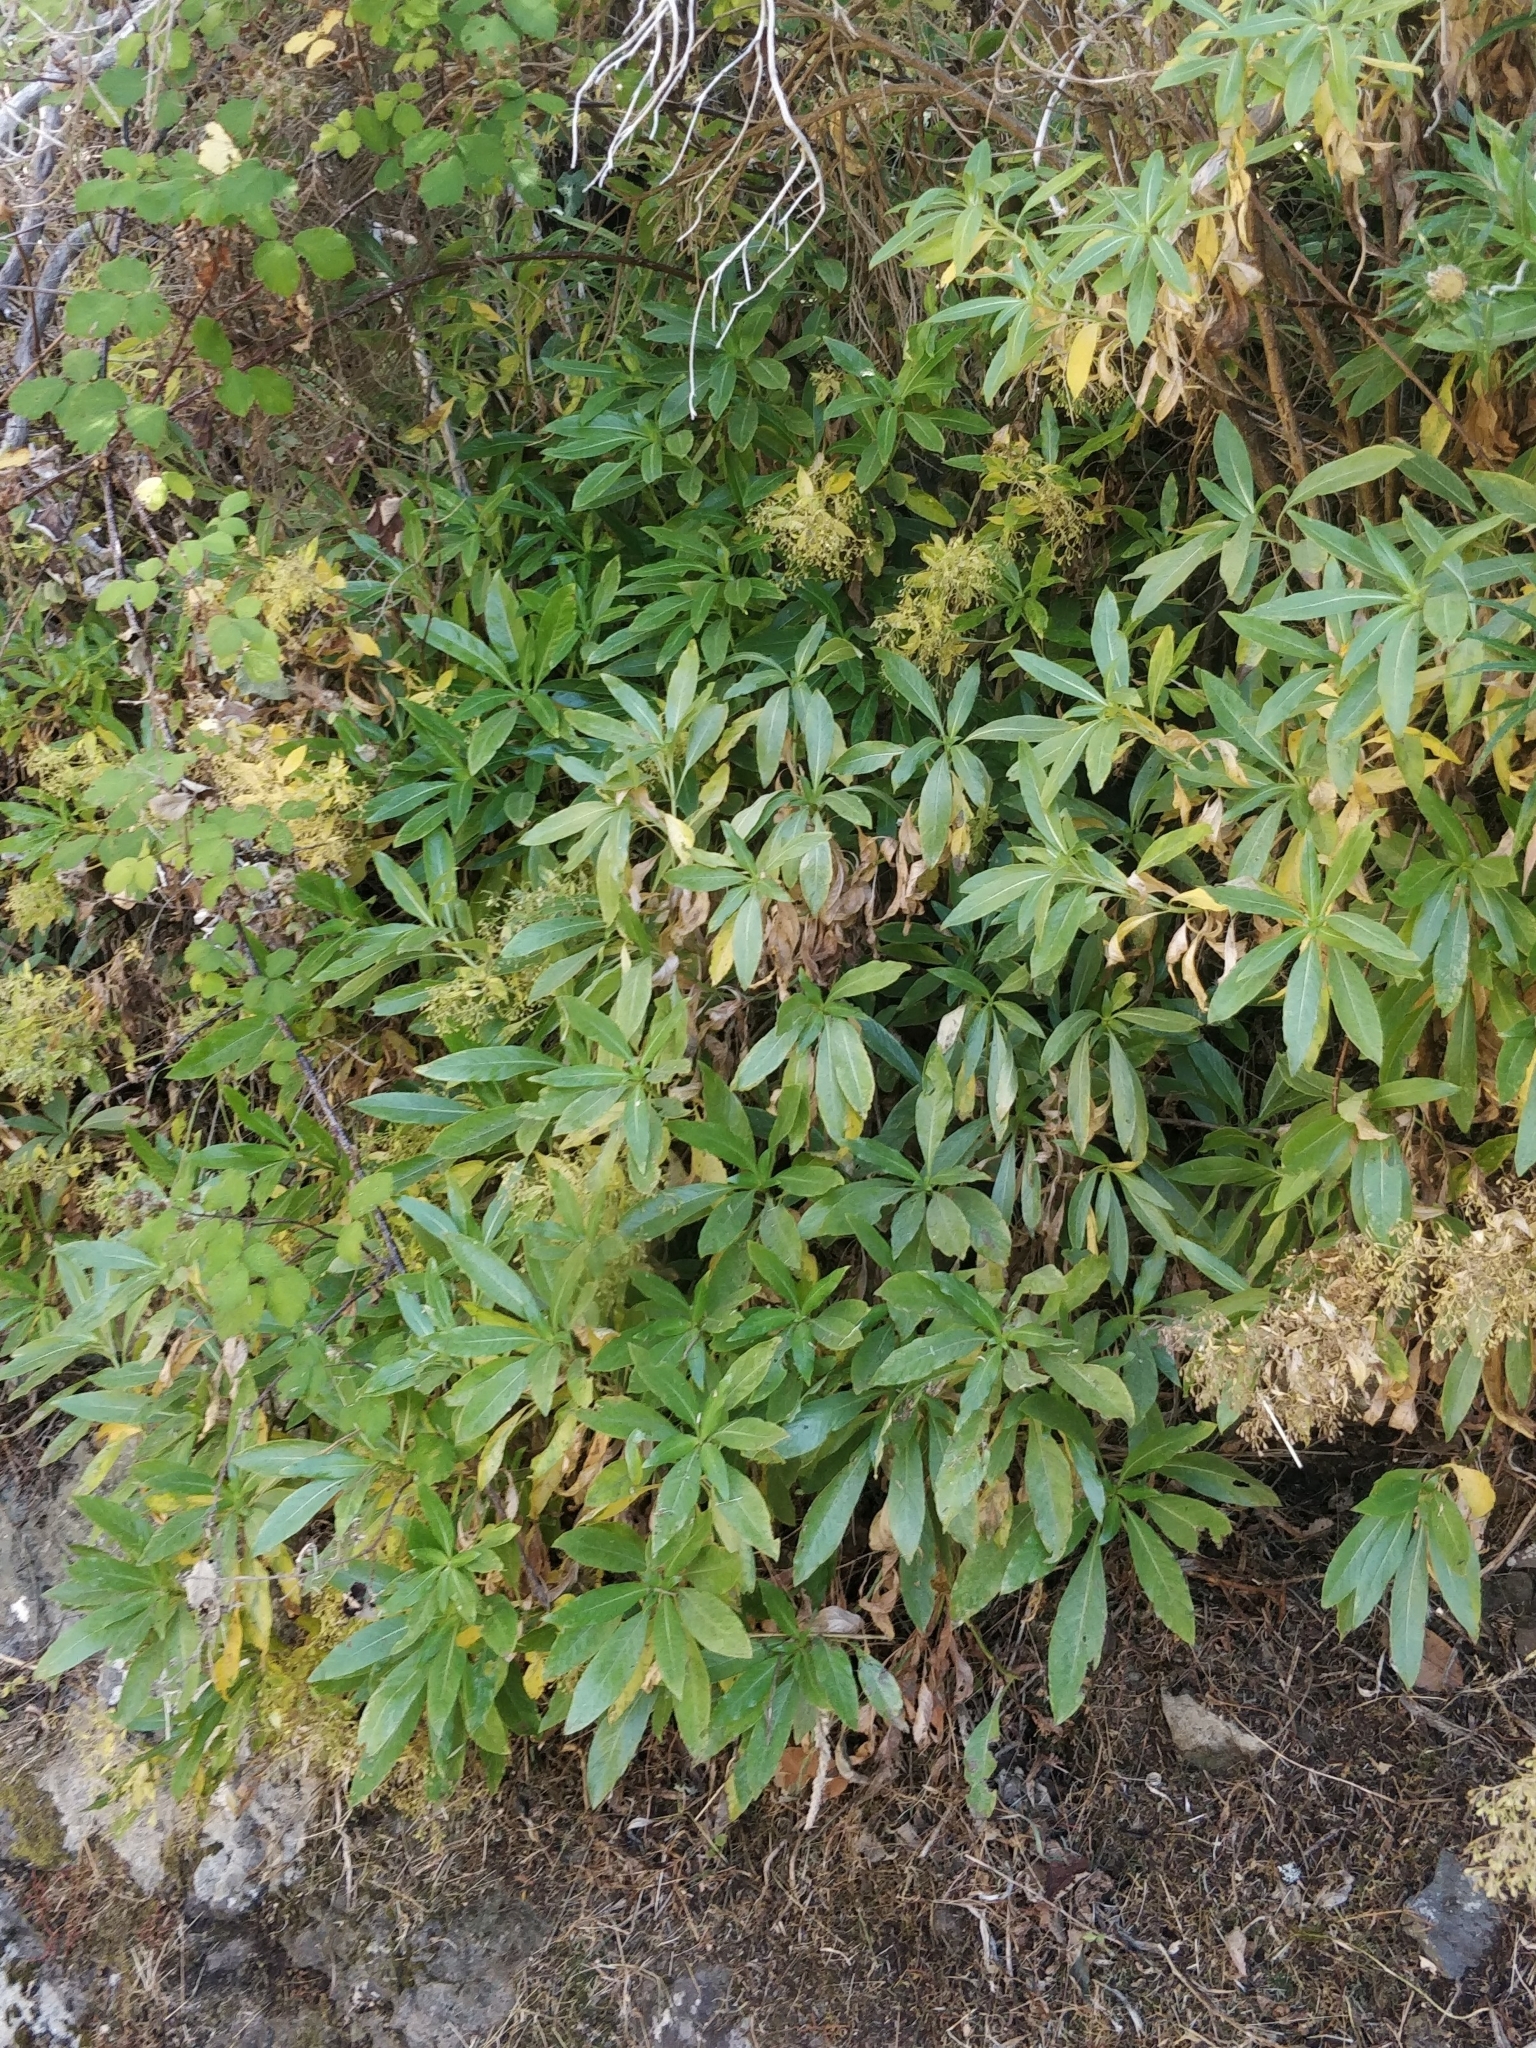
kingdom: Plantae
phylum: Tracheophyta
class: Magnoliopsida
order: Gentianales
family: Rubiaceae
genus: Phyllis
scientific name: Phyllis nobla
